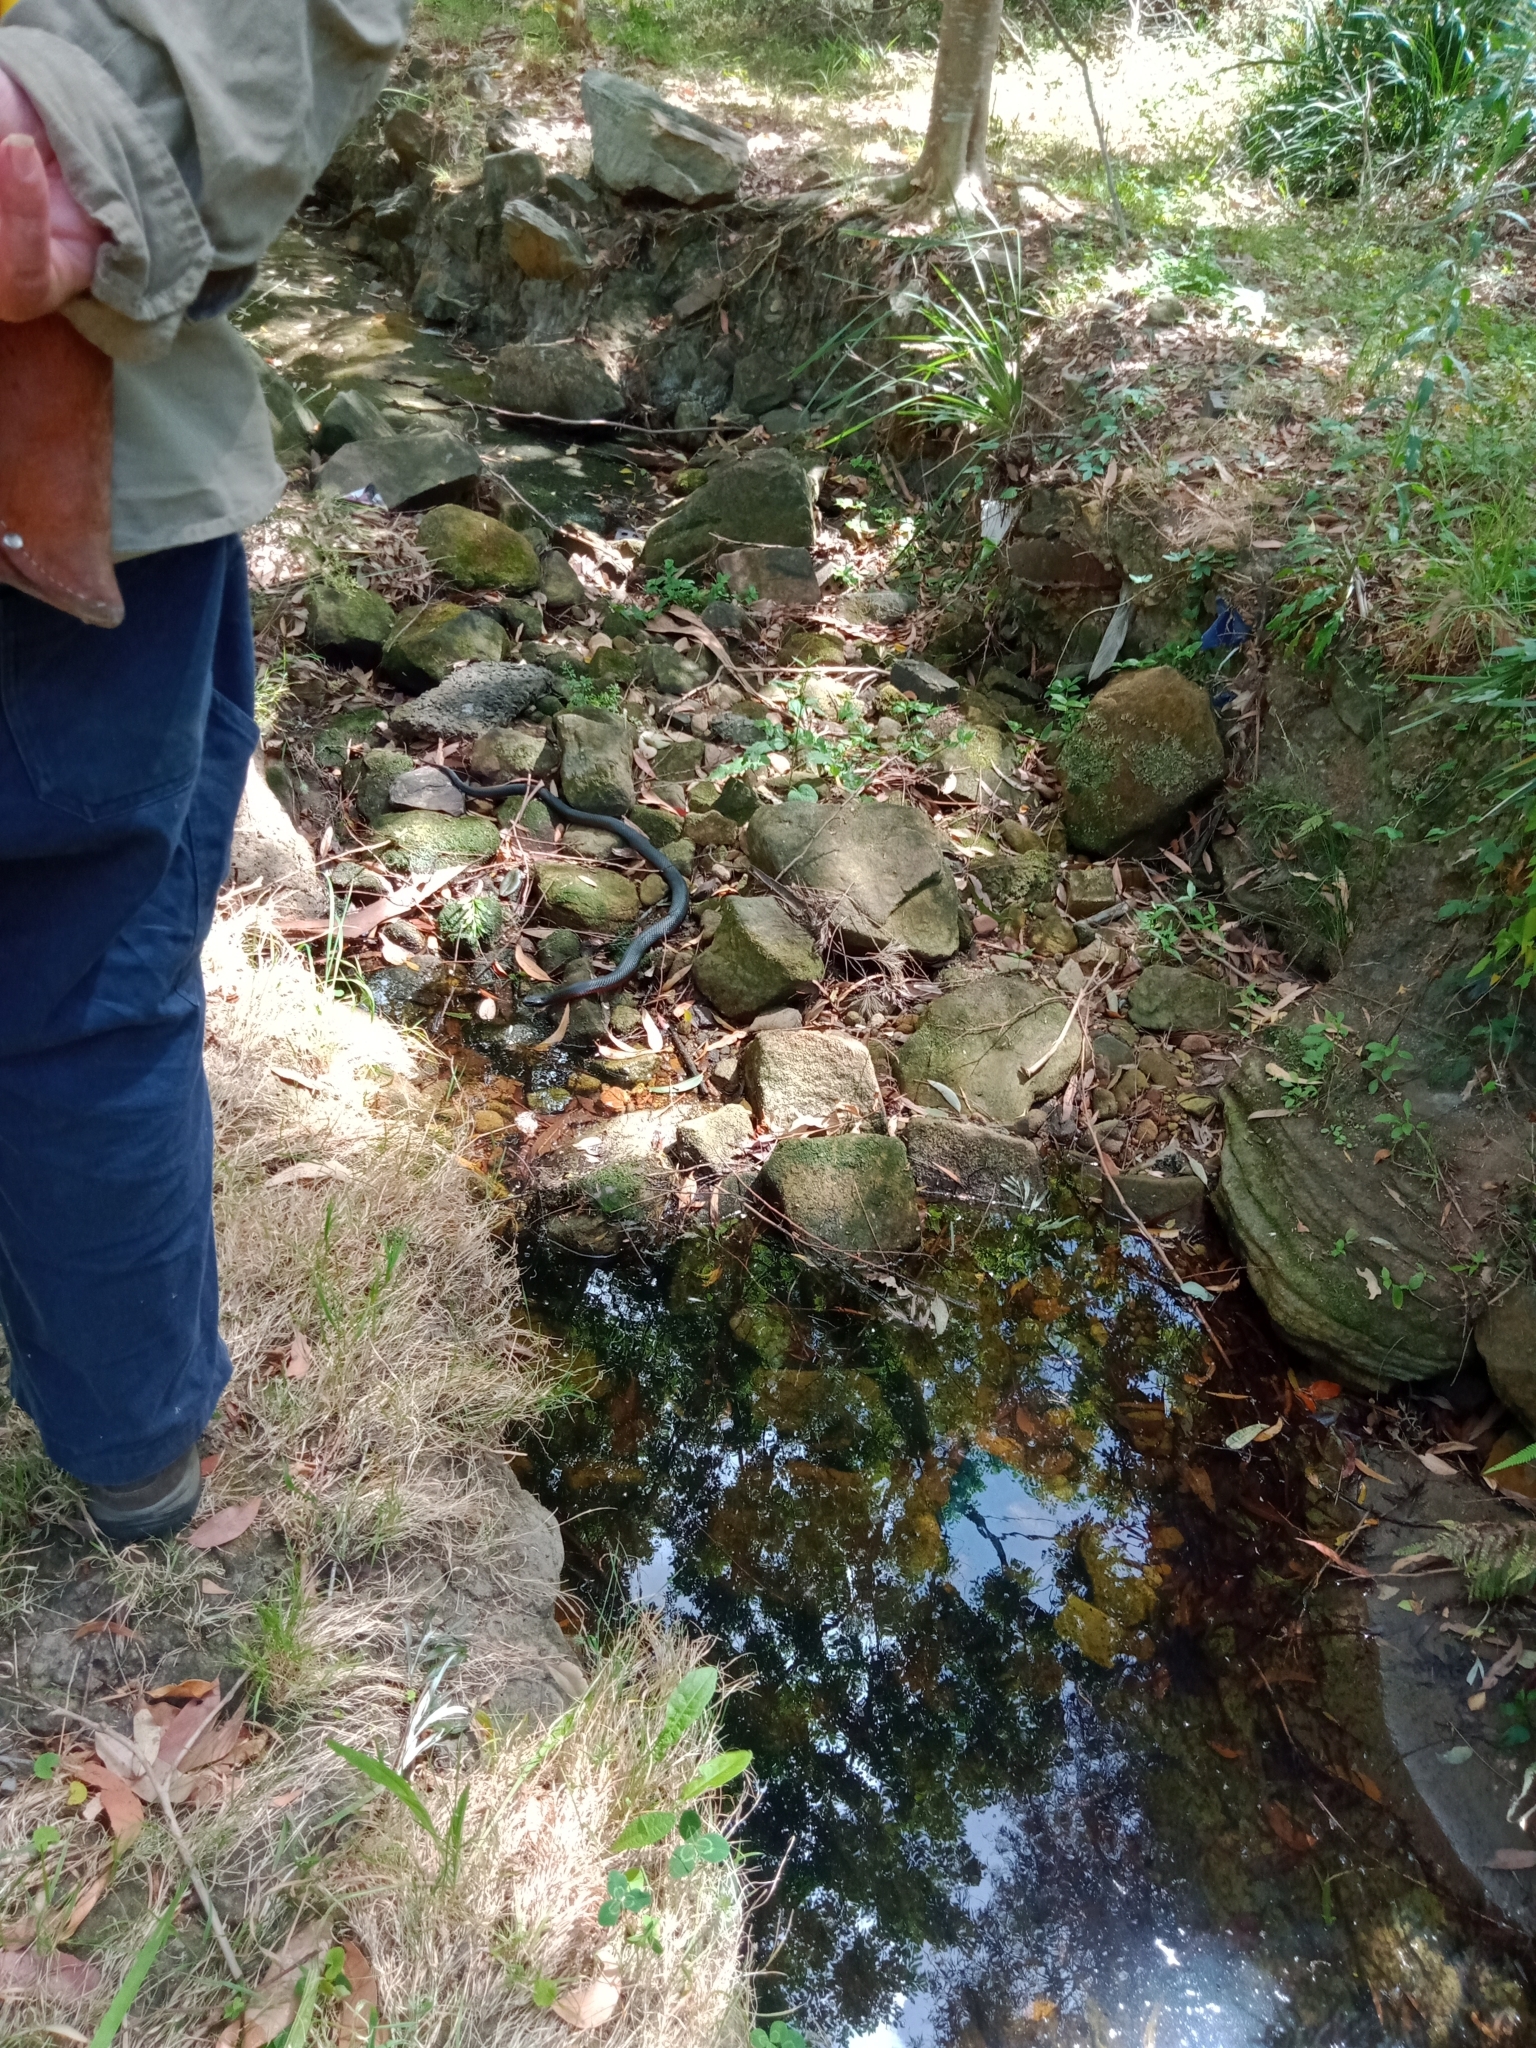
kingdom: Animalia
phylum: Chordata
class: Squamata
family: Elapidae
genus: Pseudechis
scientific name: Pseudechis porphyriacus
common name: Australian black snake
